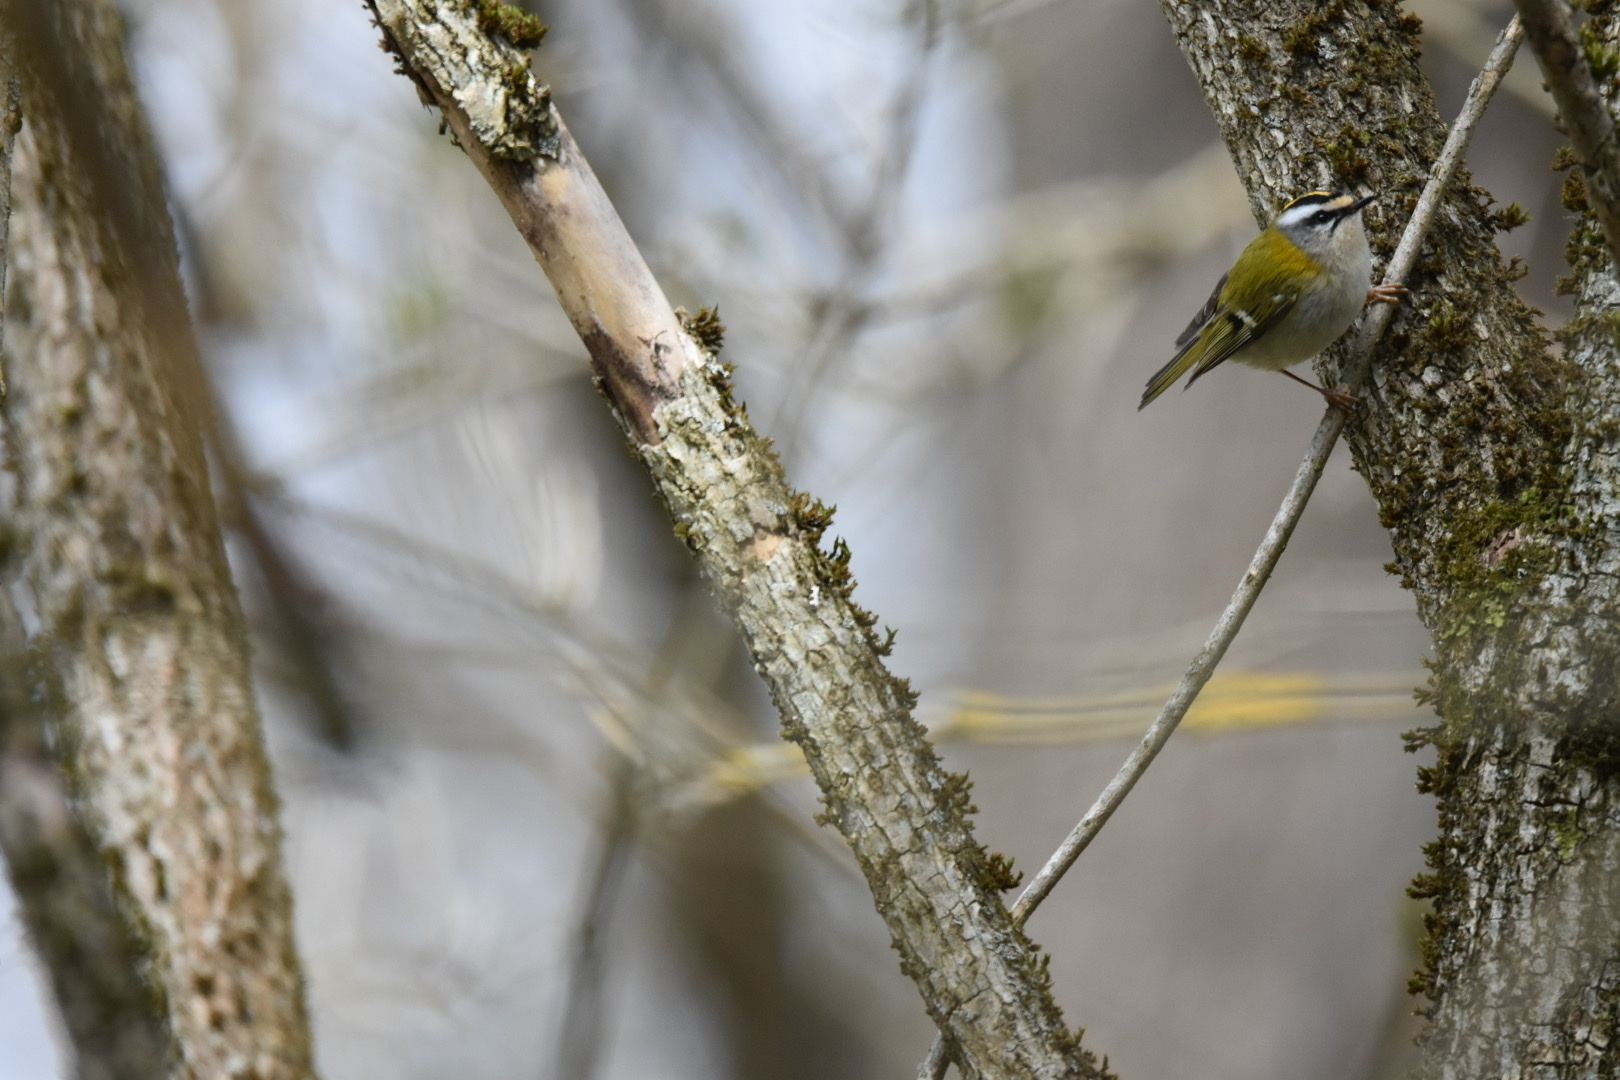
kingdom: Animalia
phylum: Chordata
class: Aves
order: Passeriformes
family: Regulidae
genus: Regulus
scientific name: Regulus ignicapilla
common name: Firecrest
